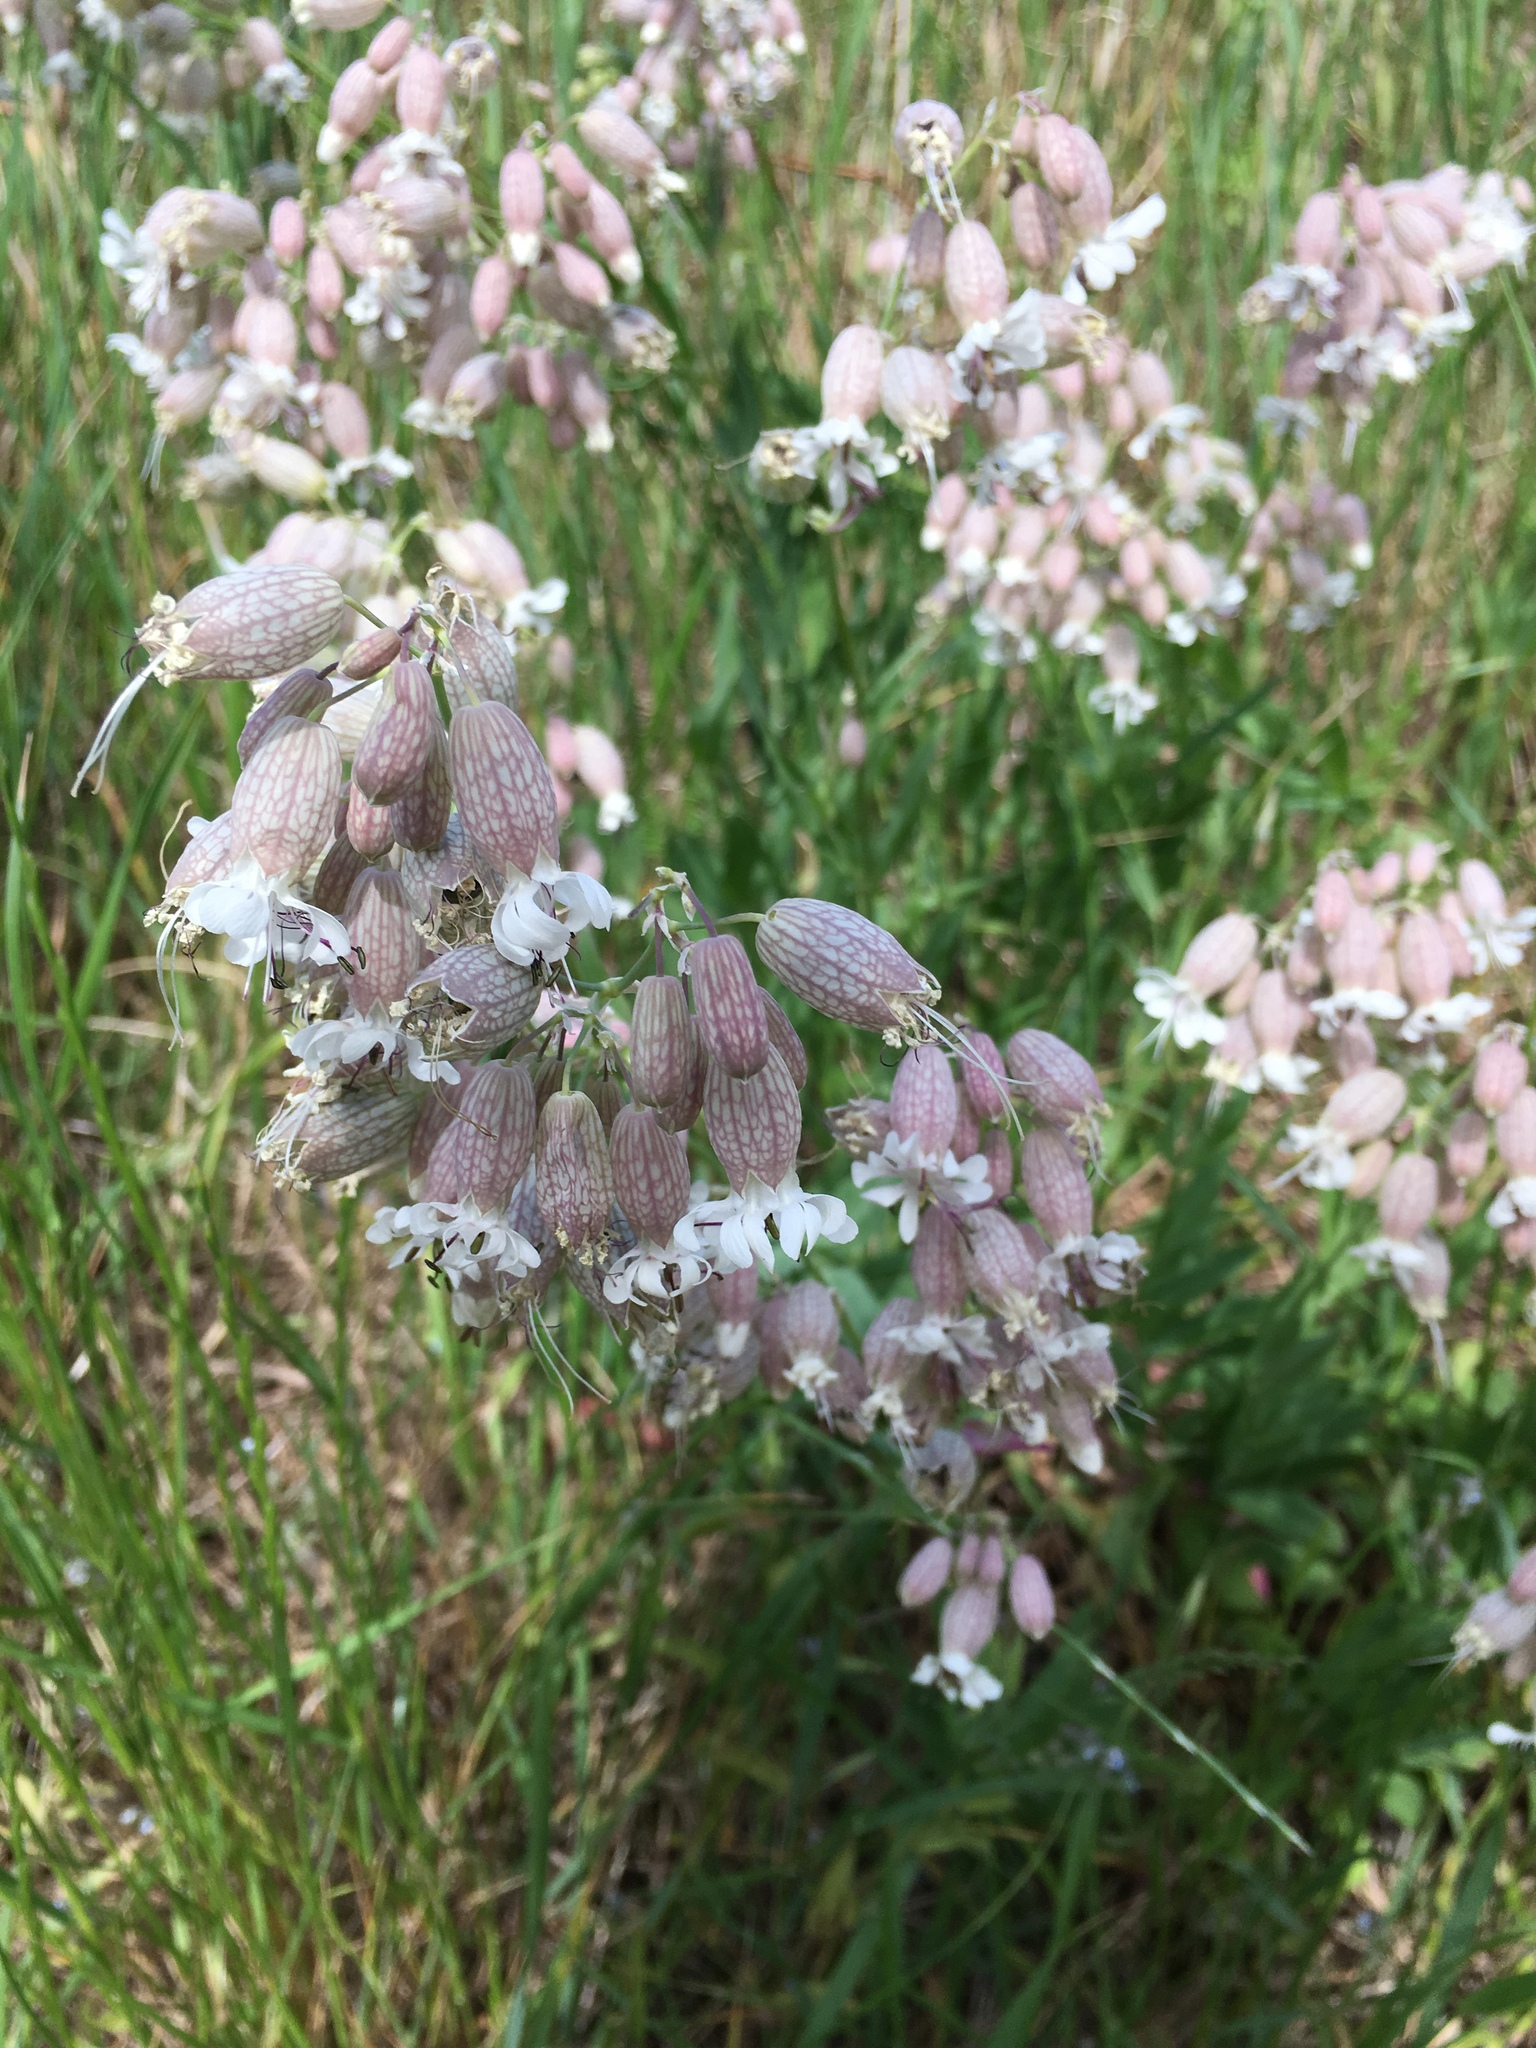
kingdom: Plantae
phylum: Tracheophyta
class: Magnoliopsida
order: Caryophyllales
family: Caryophyllaceae
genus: Silene
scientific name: Silene vulgaris
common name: Bladder campion
